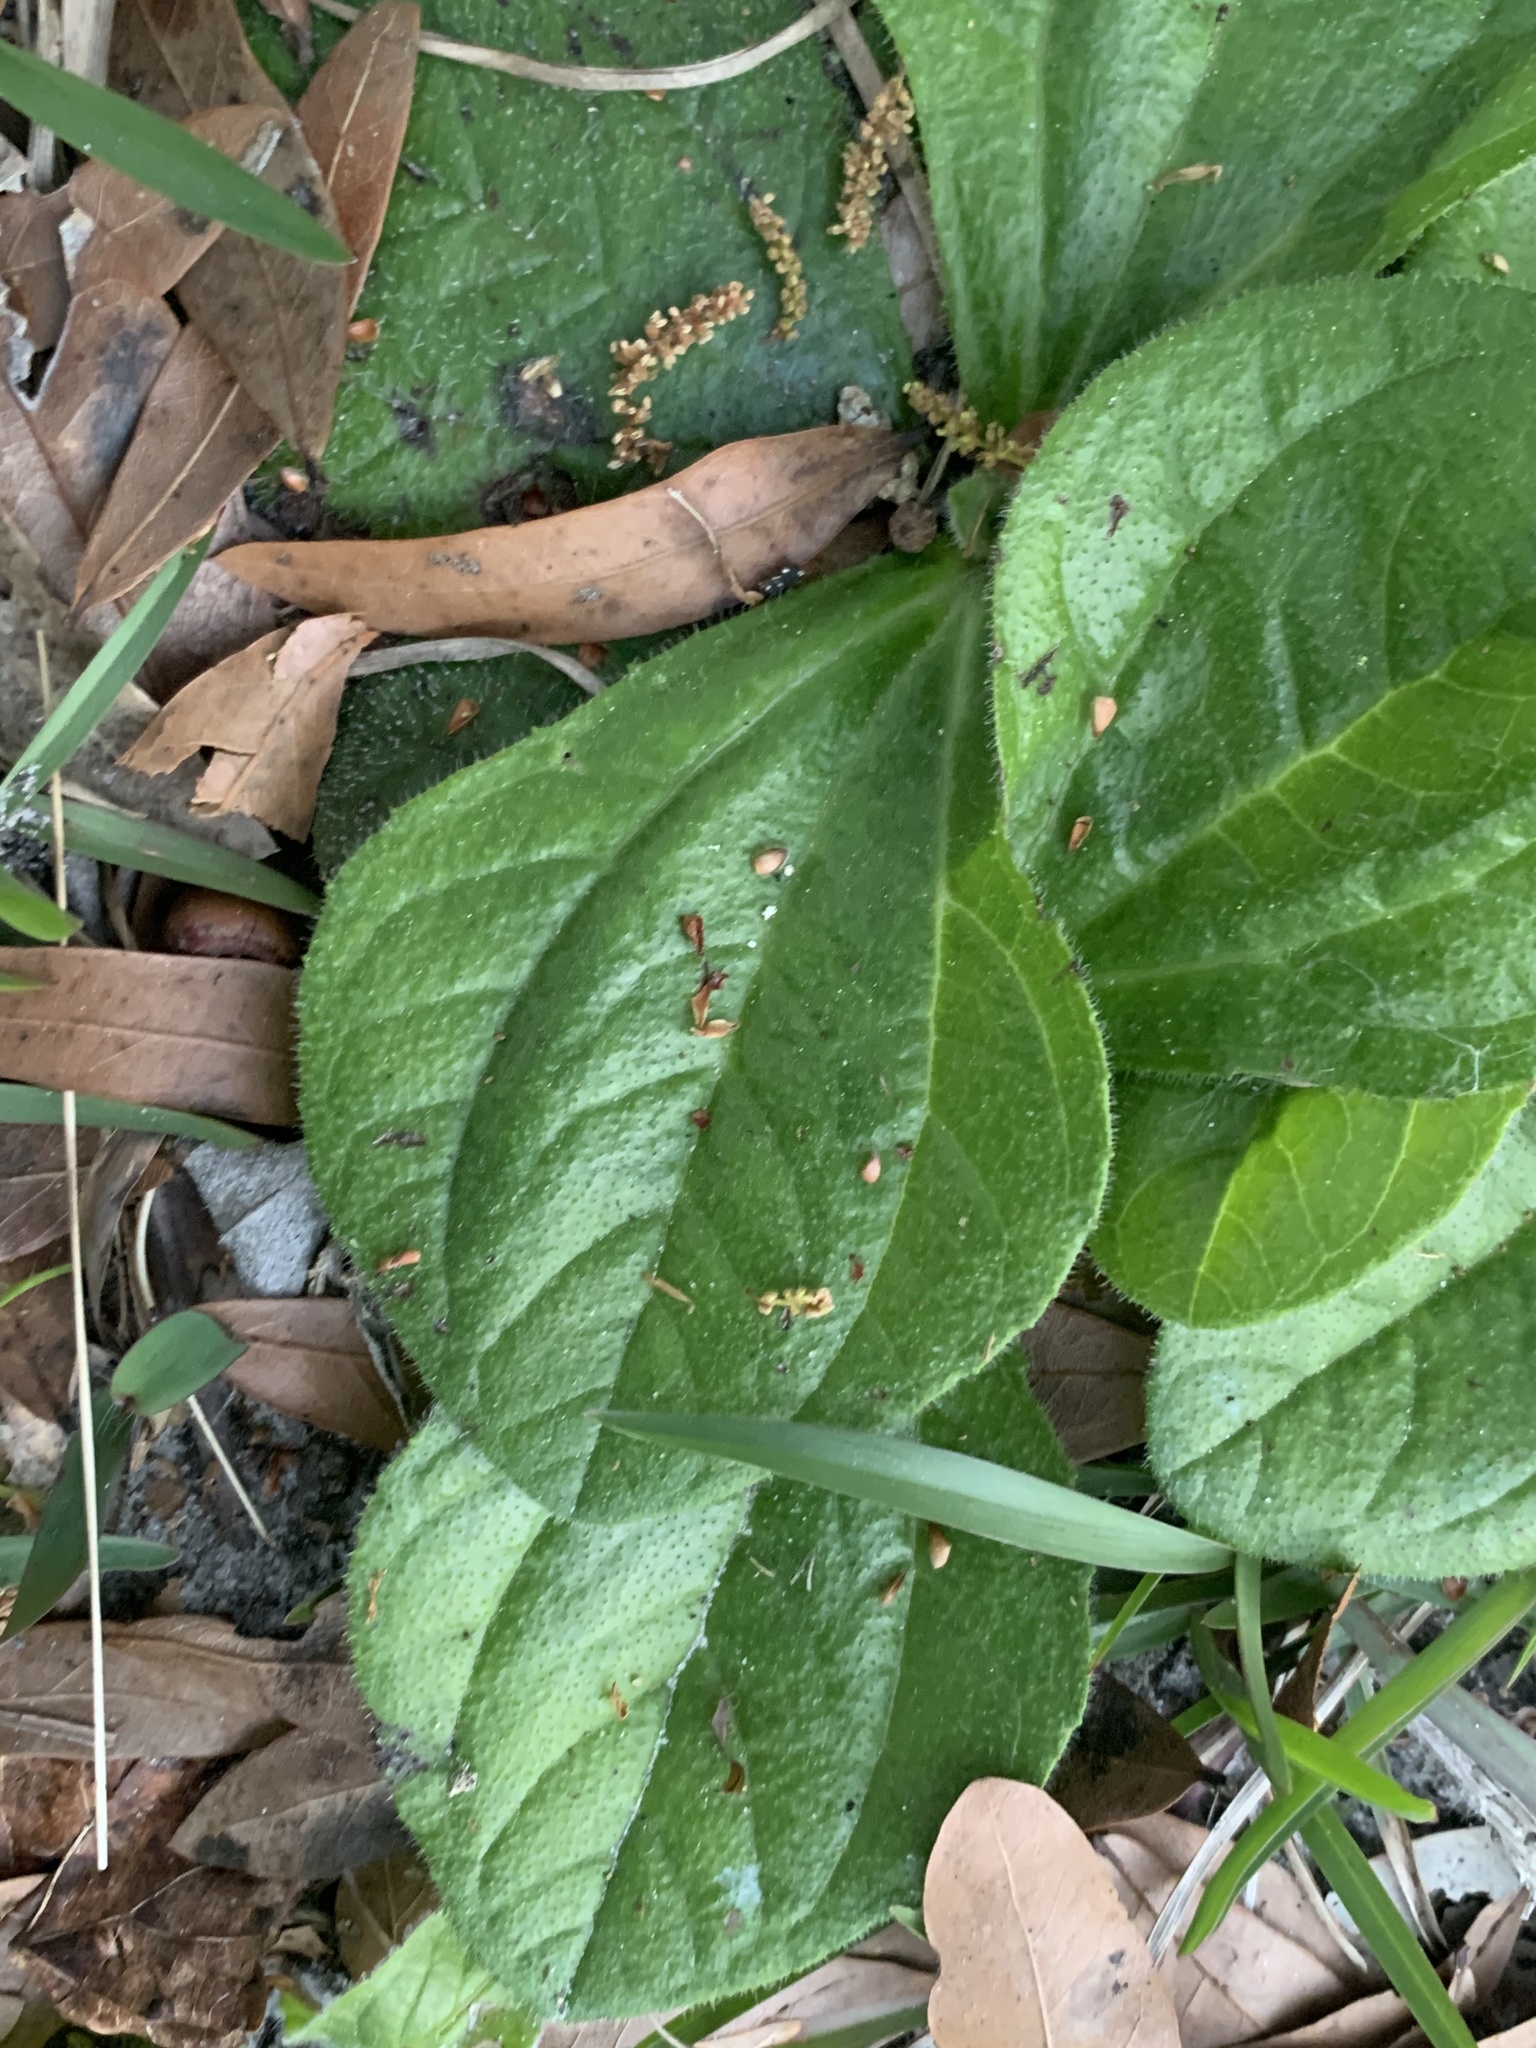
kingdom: Plantae
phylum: Tracheophyta
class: Magnoliopsida
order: Asterales
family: Asteraceae
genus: Helianthus
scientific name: Helianthus radula
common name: Pineland sunflower
